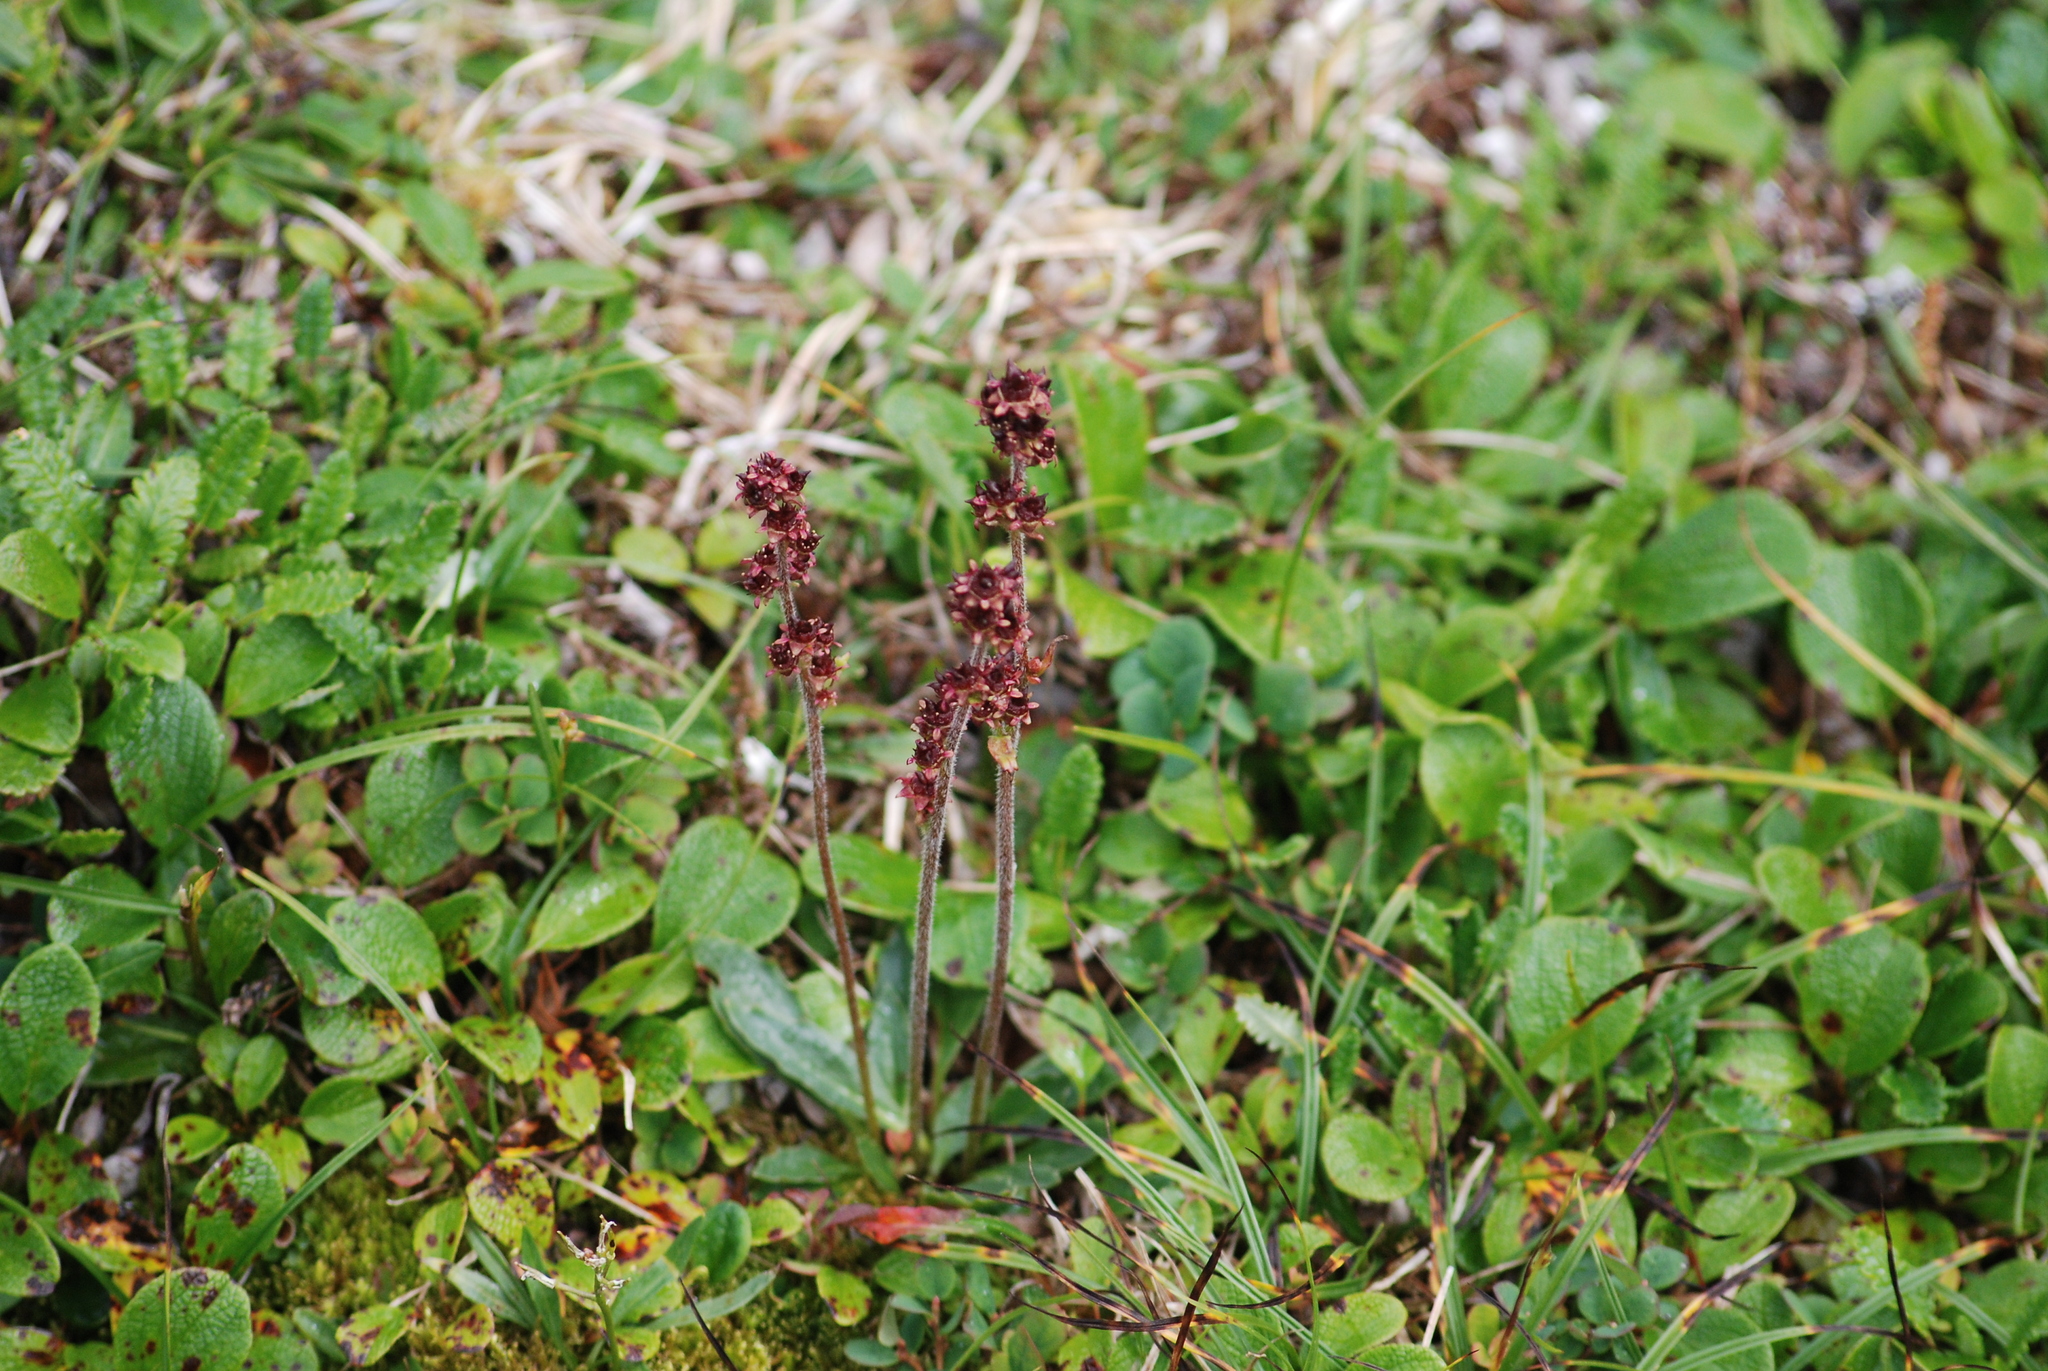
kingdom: Plantae
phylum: Tracheophyta
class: Magnoliopsida
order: Saxifragales
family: Saxifragaceae
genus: Micranthes
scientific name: Micranthes hieraciifolia
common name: Hawkweed-leaved saxifrage
